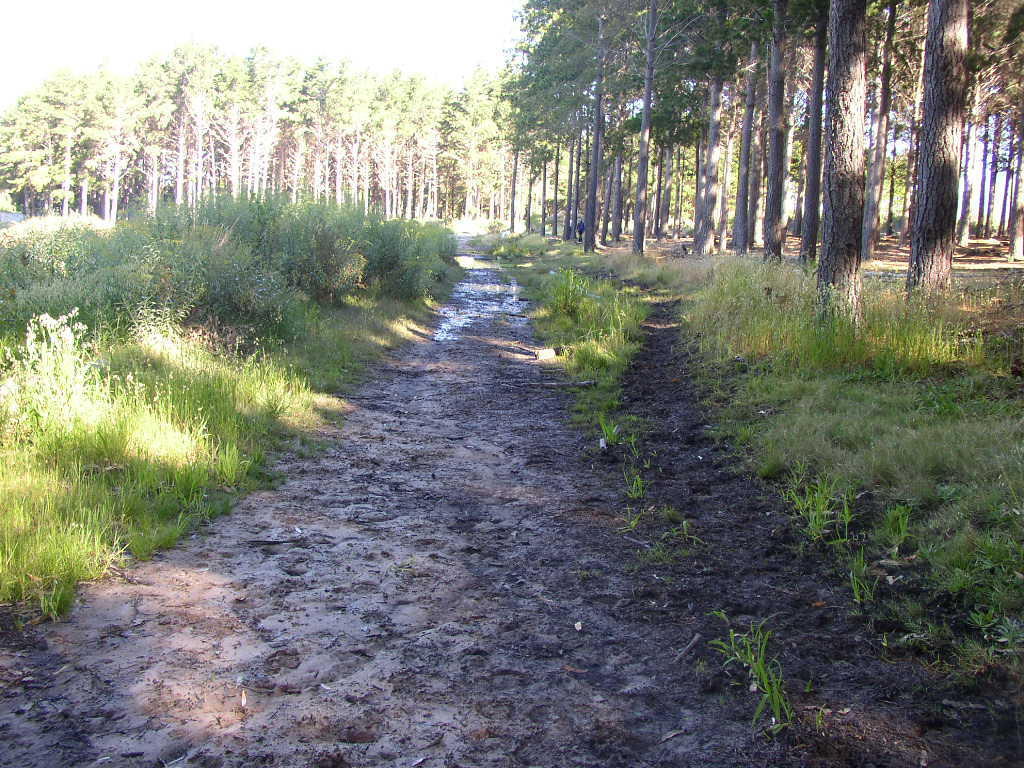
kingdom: Plantae
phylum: Tracheophyta
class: Liliopsida
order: Poales
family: Poaceae
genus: Avena
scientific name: Avena fatua
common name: Wild oat
